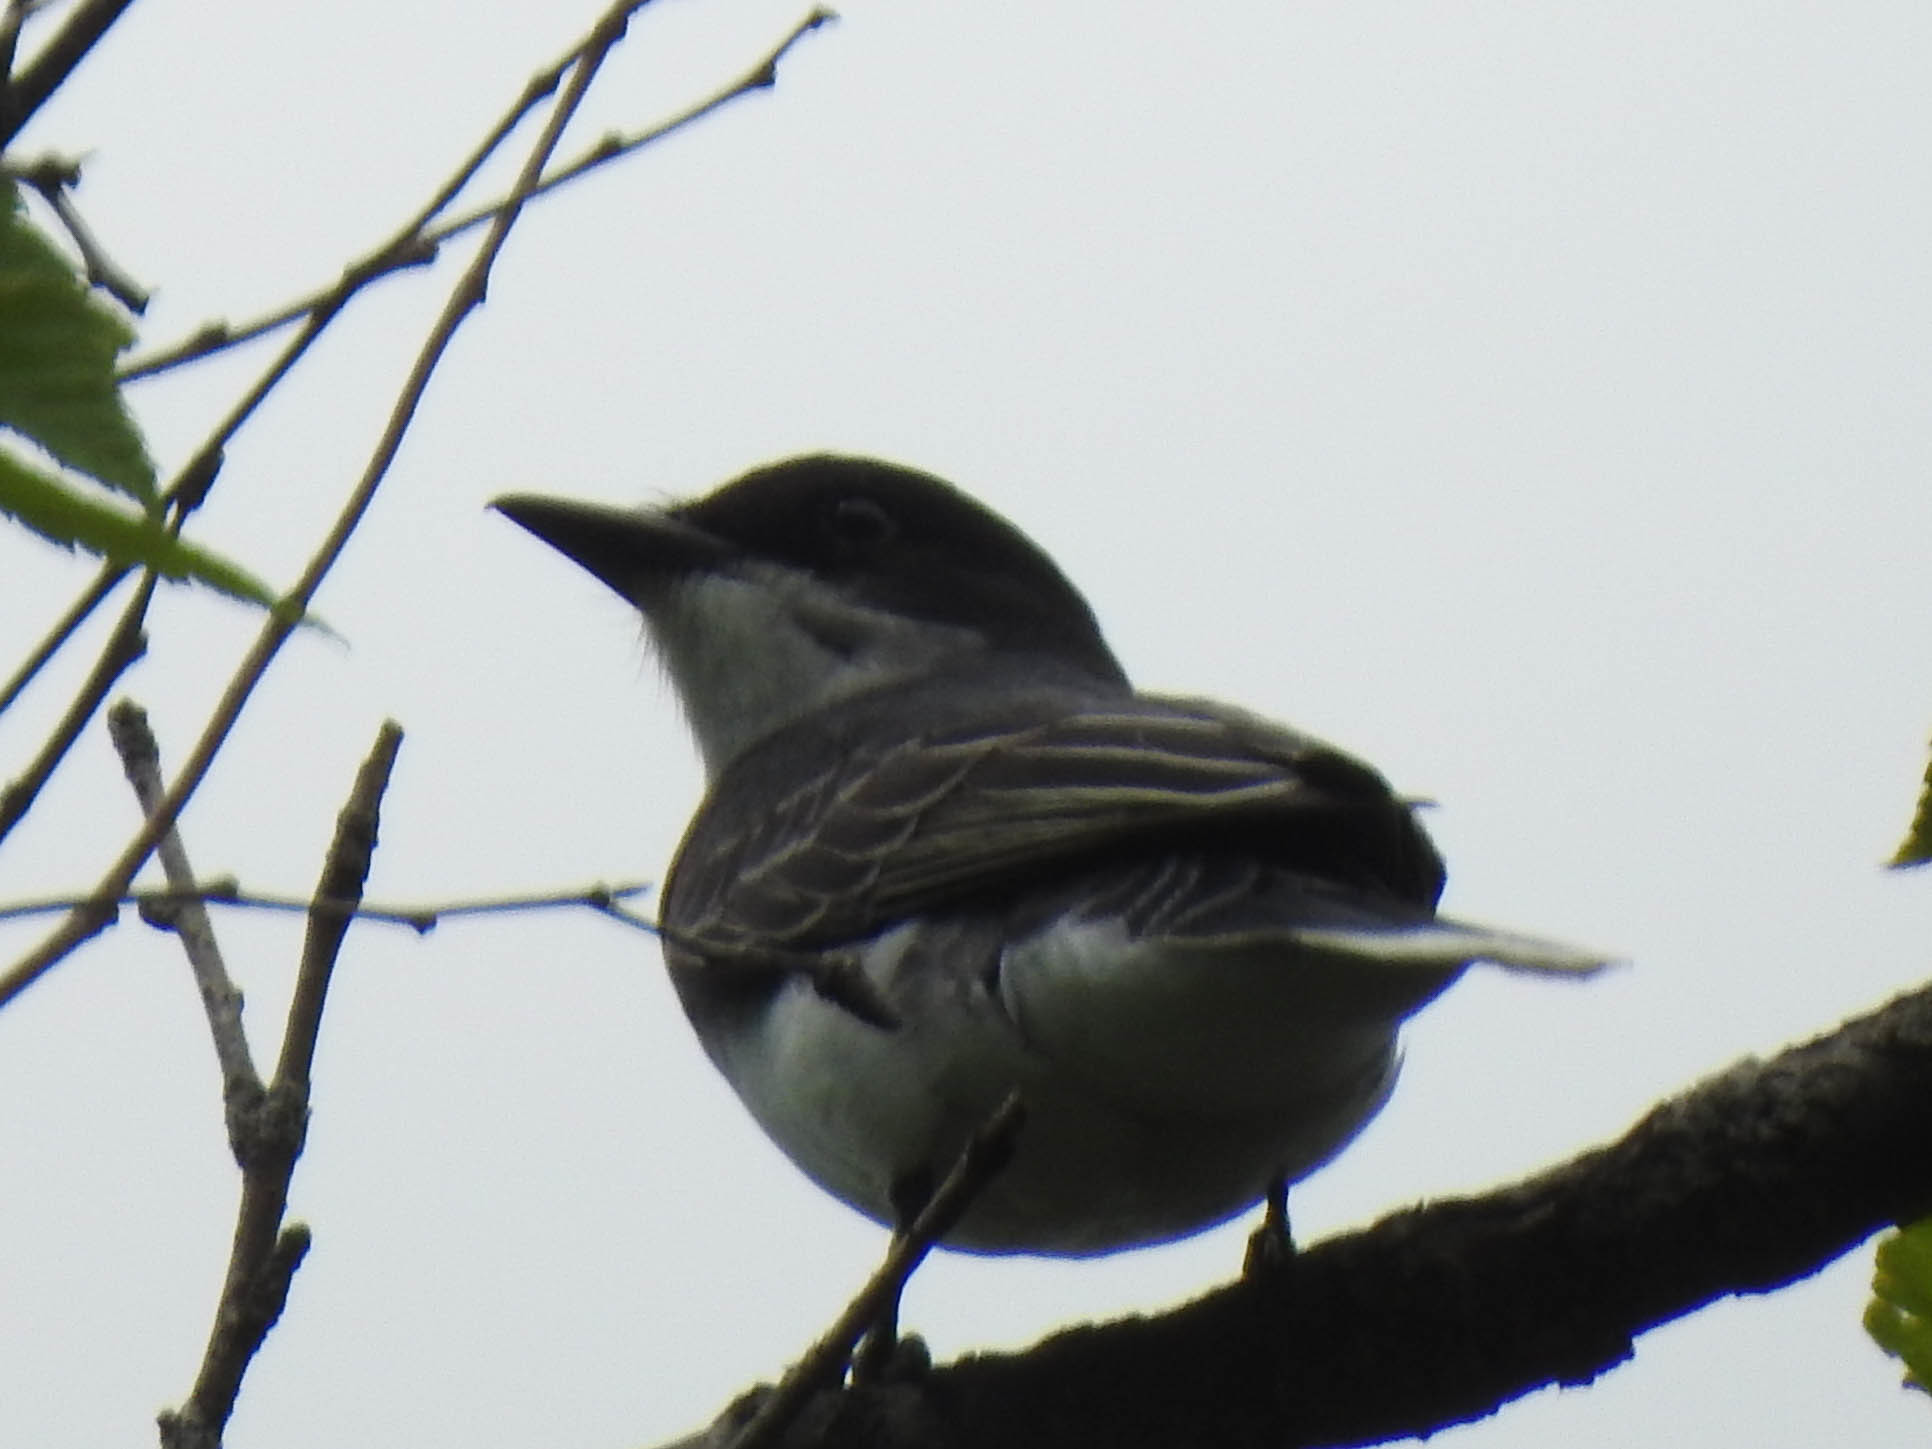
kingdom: Animalia
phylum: Chordata
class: Aves
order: Passeriformes
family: Tyrannidae
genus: Tyrannus
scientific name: Tyrannus tyrannus
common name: Eastern kingbird
